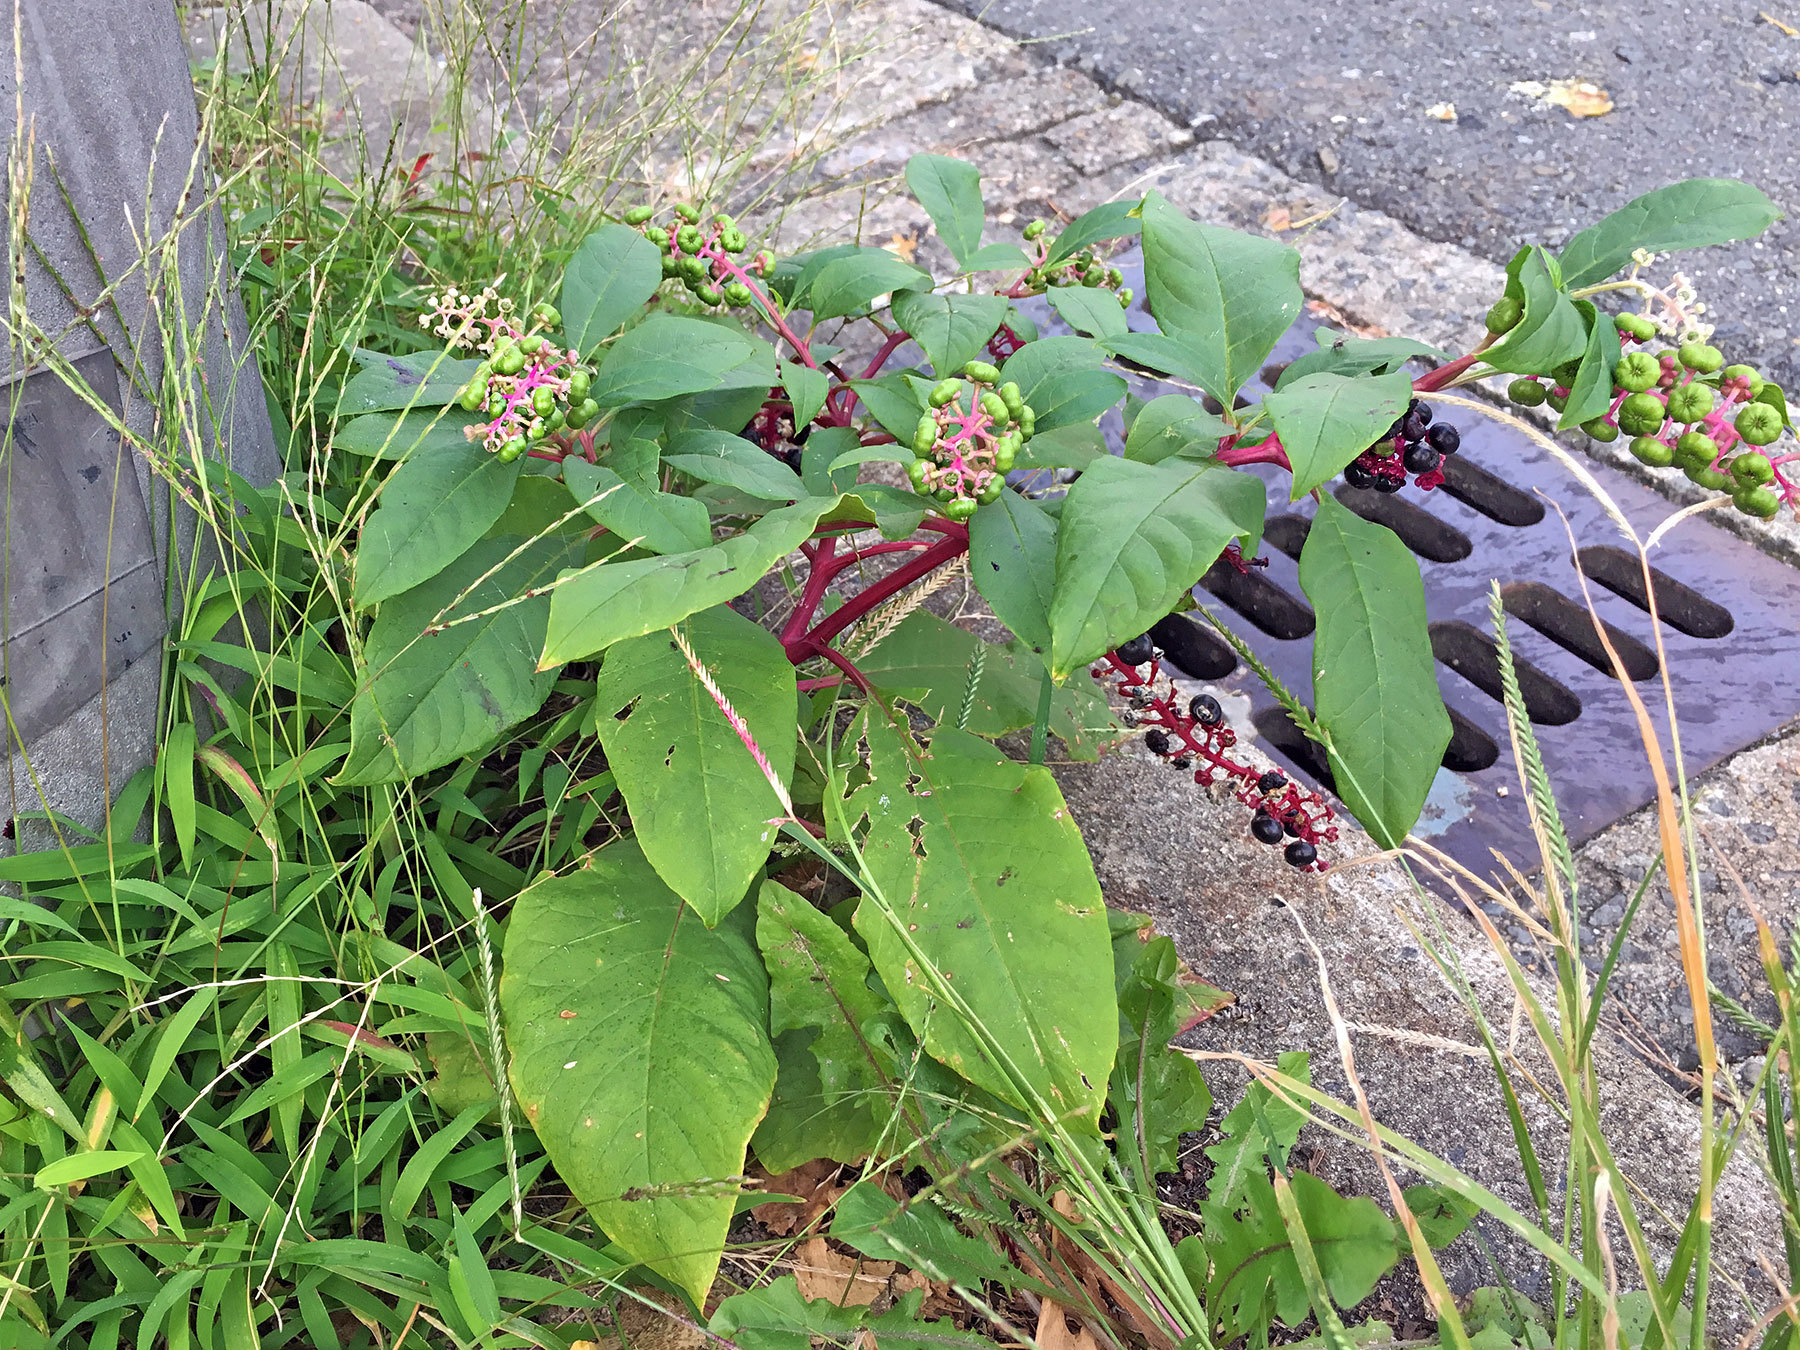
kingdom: Plantae
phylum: Tracheophyta
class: Magnoliopsida
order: Caryophyllales
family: Phytolaccaceae
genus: Phytolacca
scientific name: Phytolacca americana
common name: American pokeweed
